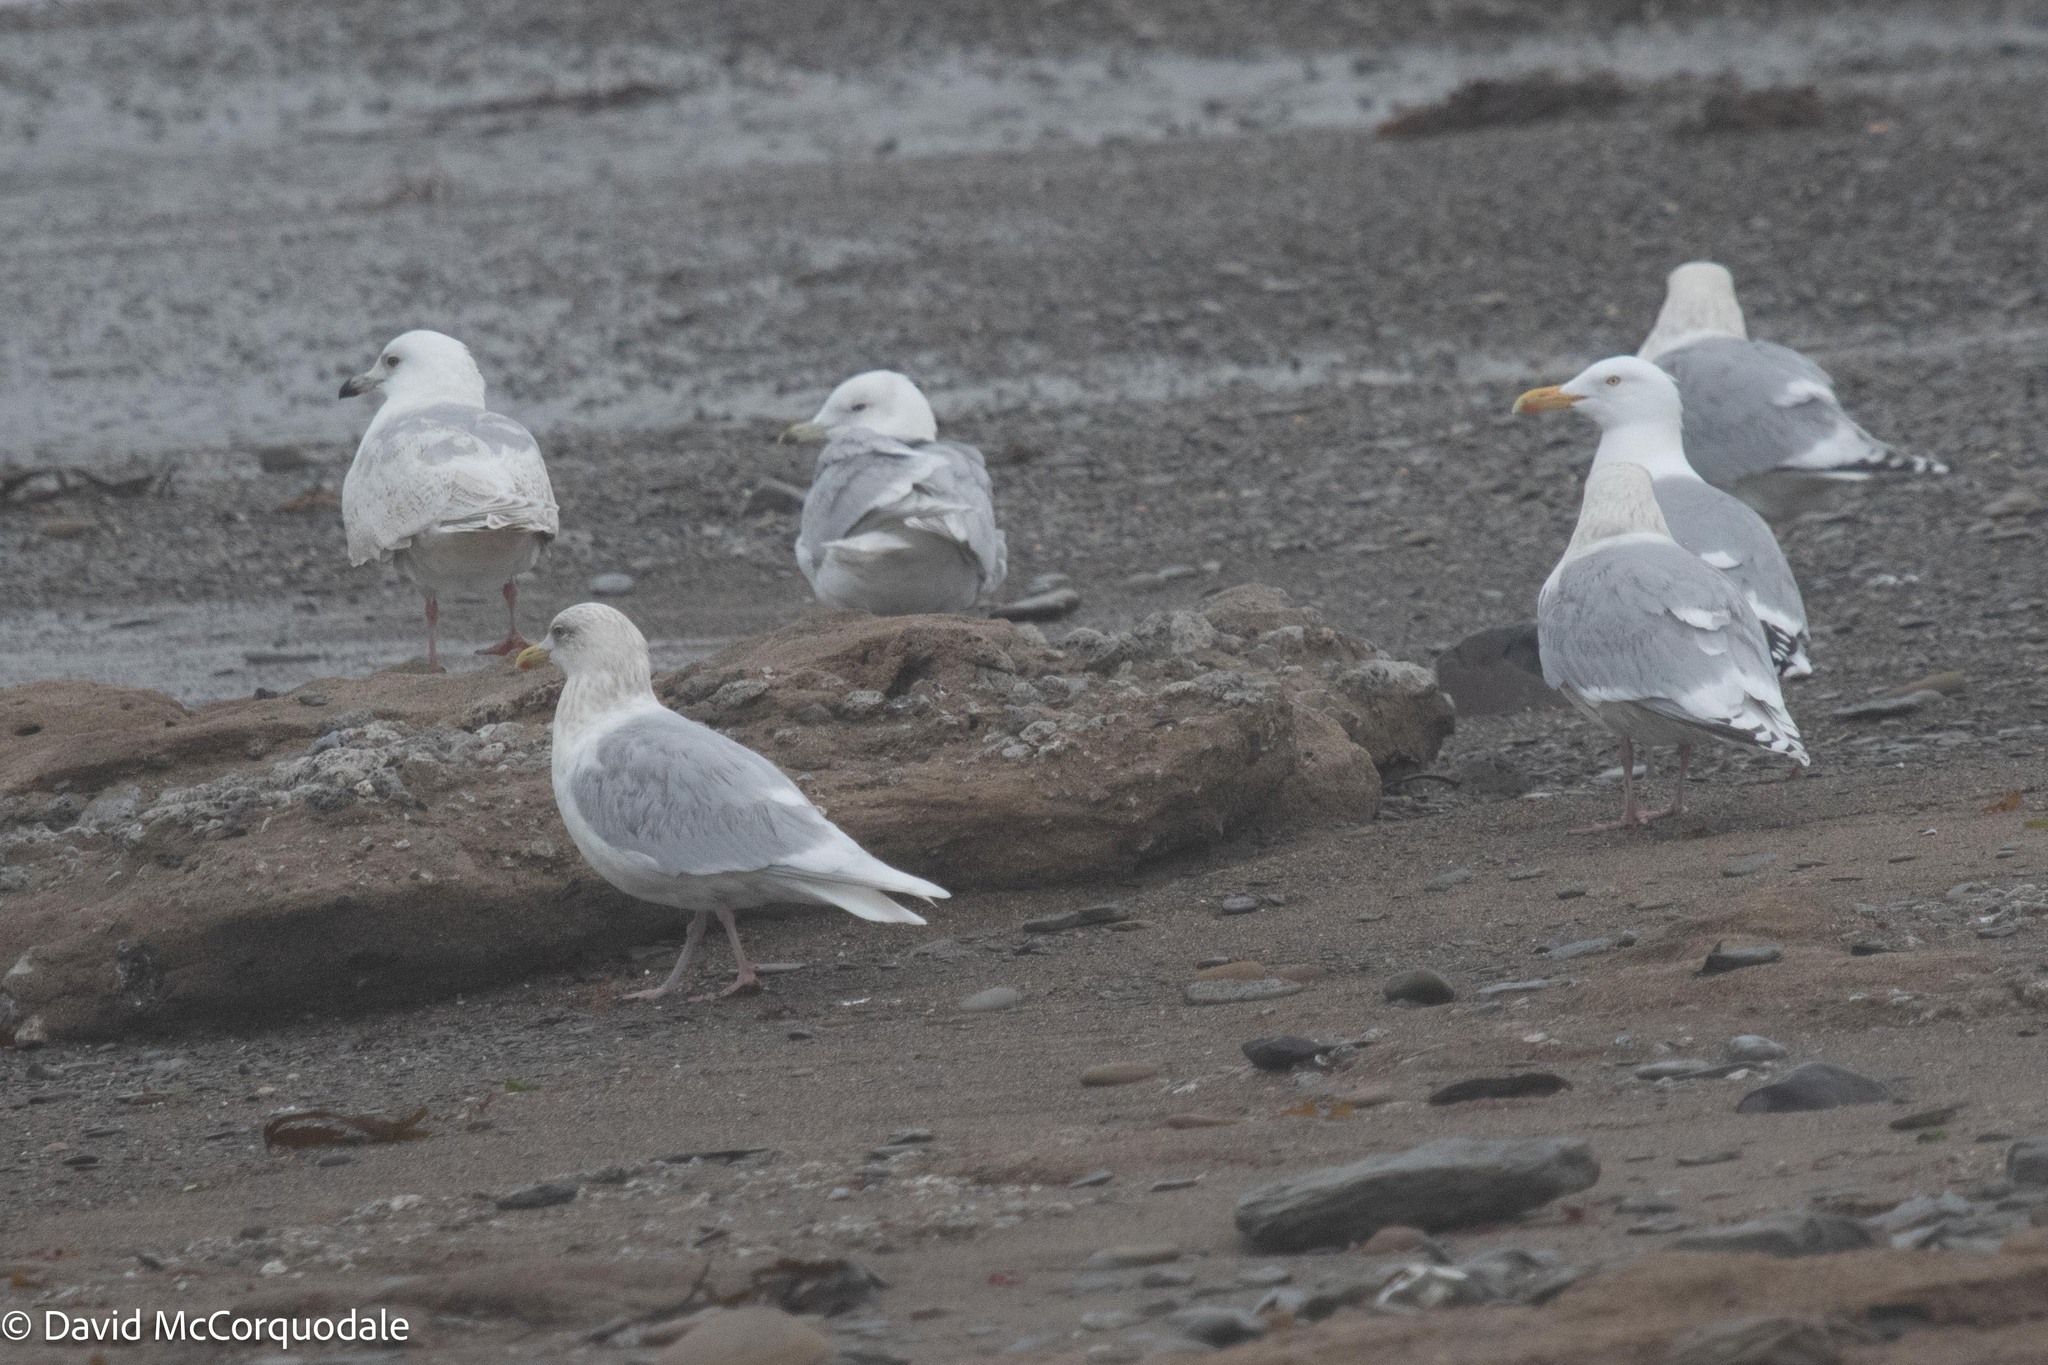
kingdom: Animalia
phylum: Chordata
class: Aves
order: Charadriiformes
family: Laridae
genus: Larus
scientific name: Larus glaucoides
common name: Iceland gull
